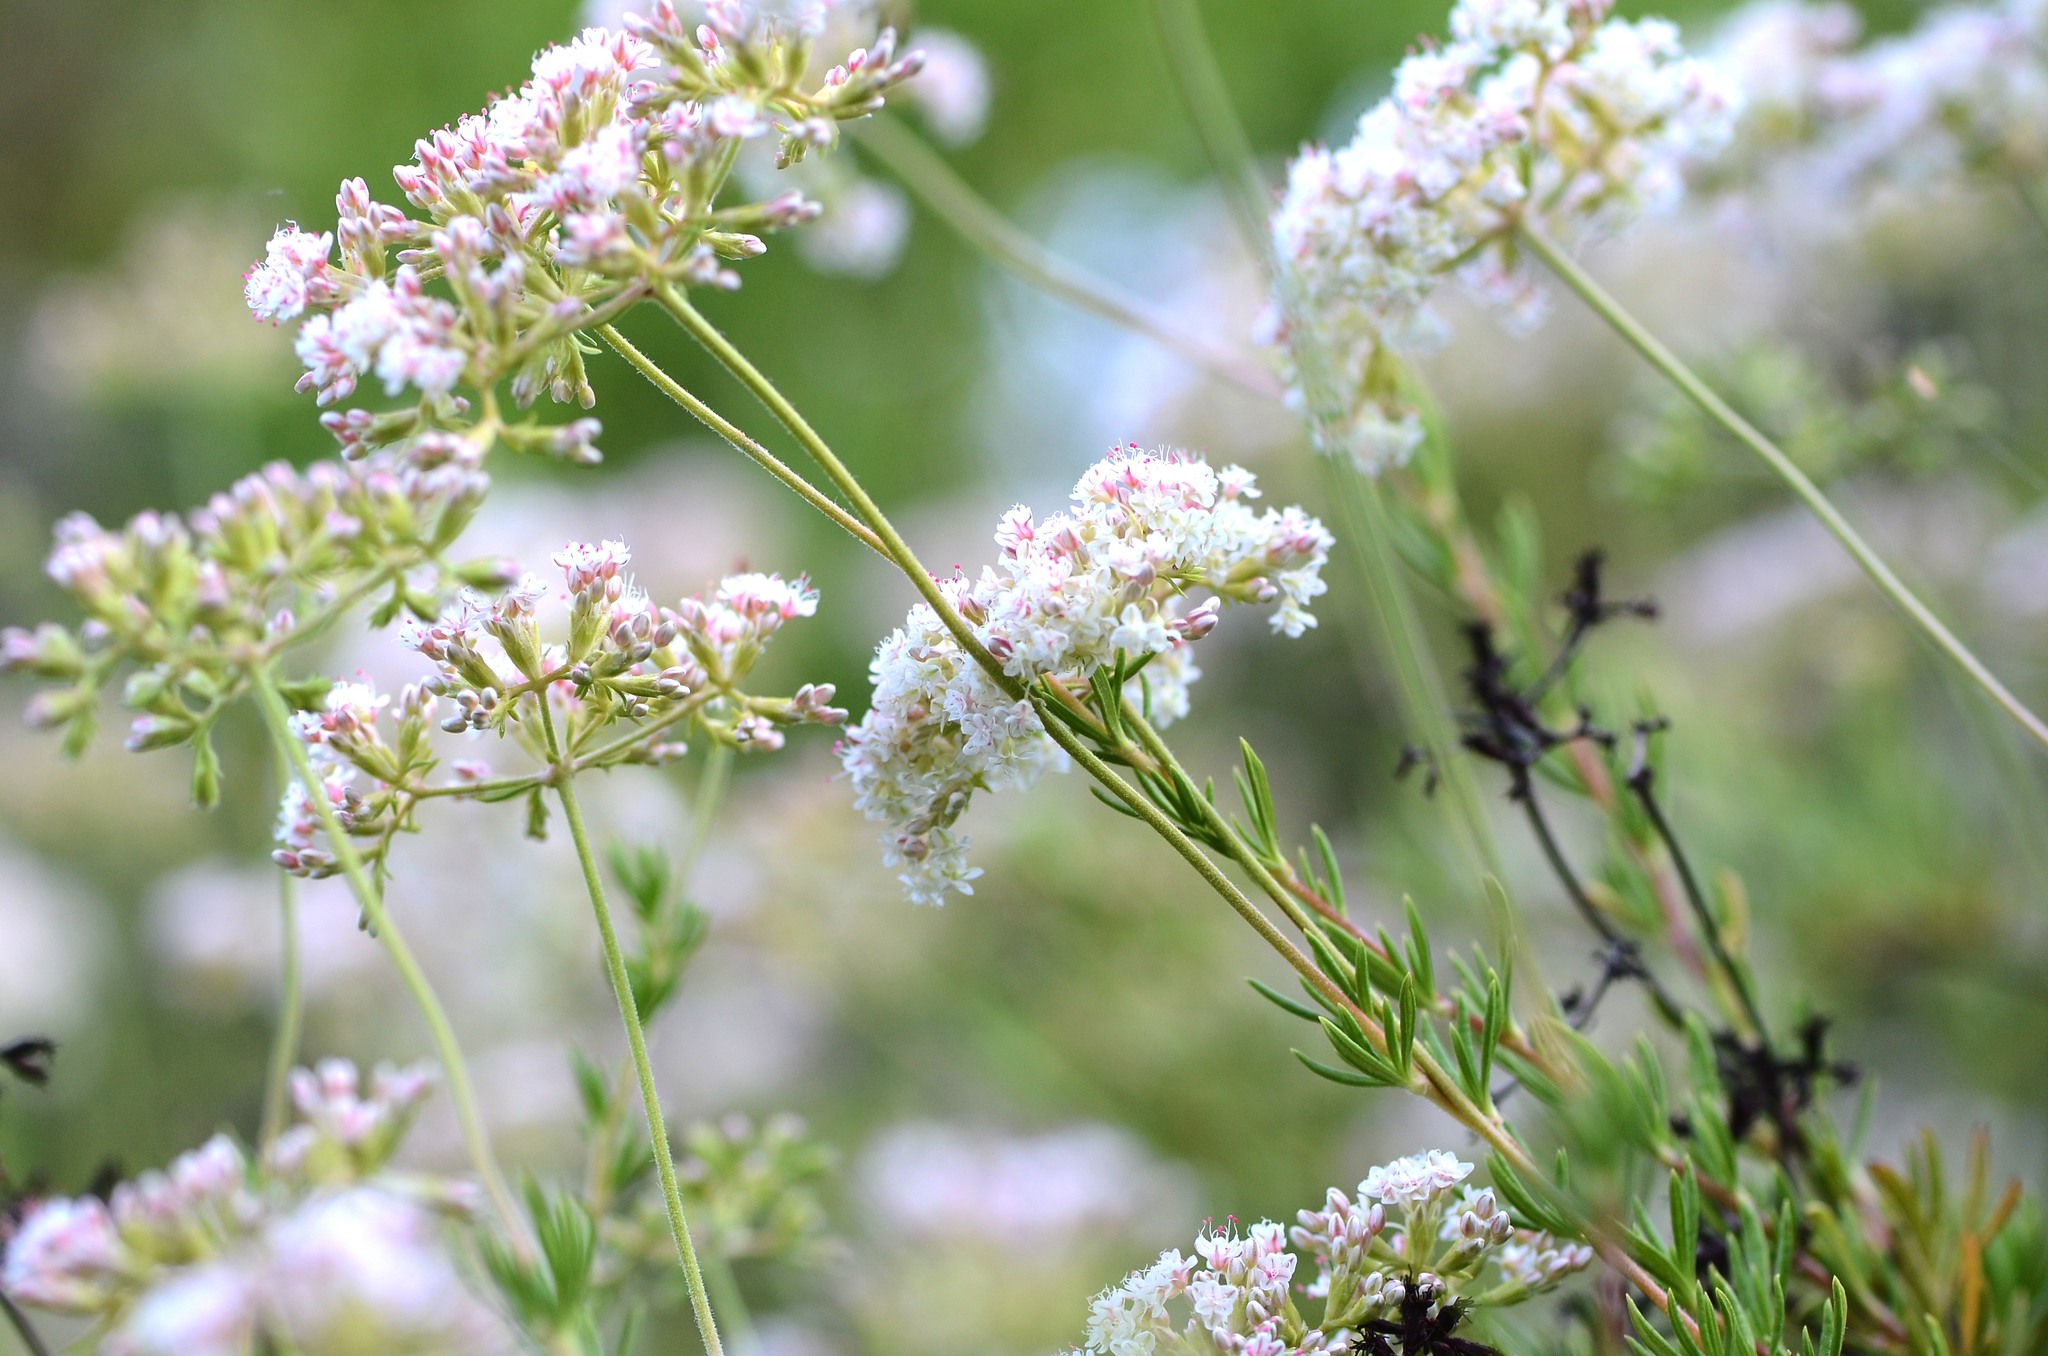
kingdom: Plantae
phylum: Tracheophyta
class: Magnoliopsida
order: Caryophyllales
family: Polygonaceae
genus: Eriogonum
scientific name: Eriogonum fasciculatum
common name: California wild buckwheat
